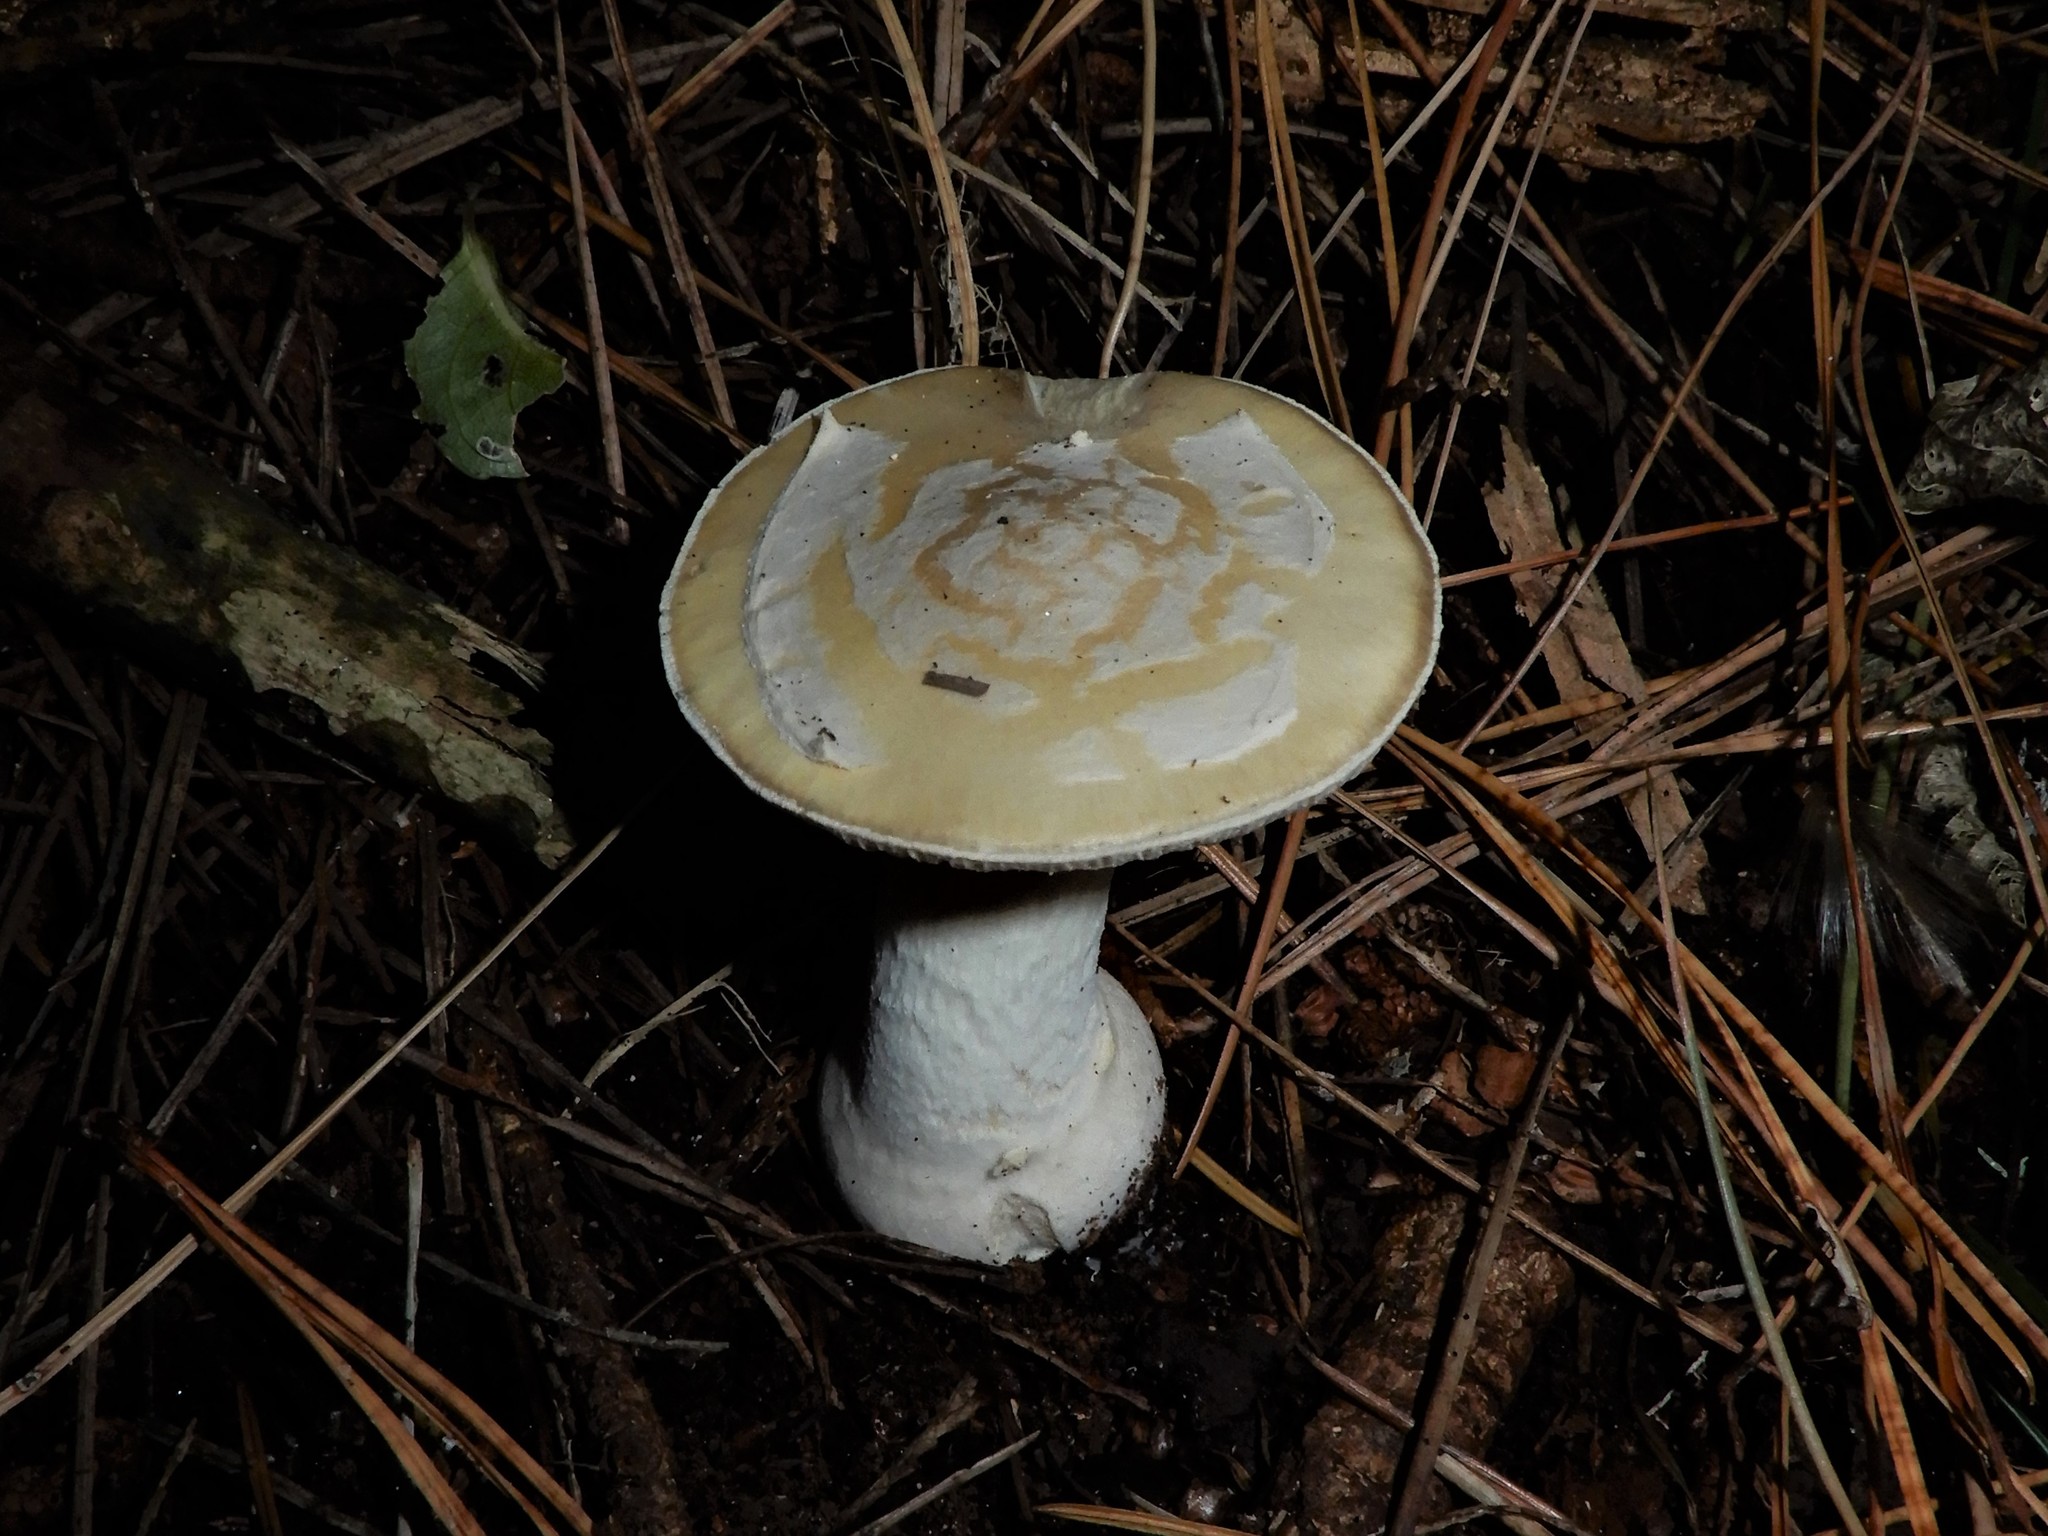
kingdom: Fungi
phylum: Basidiomycota
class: Agaricomycetes
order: Agaricales
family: Amanitaceae
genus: Amanita
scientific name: Amanita gemmata
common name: Jewelled amanita
